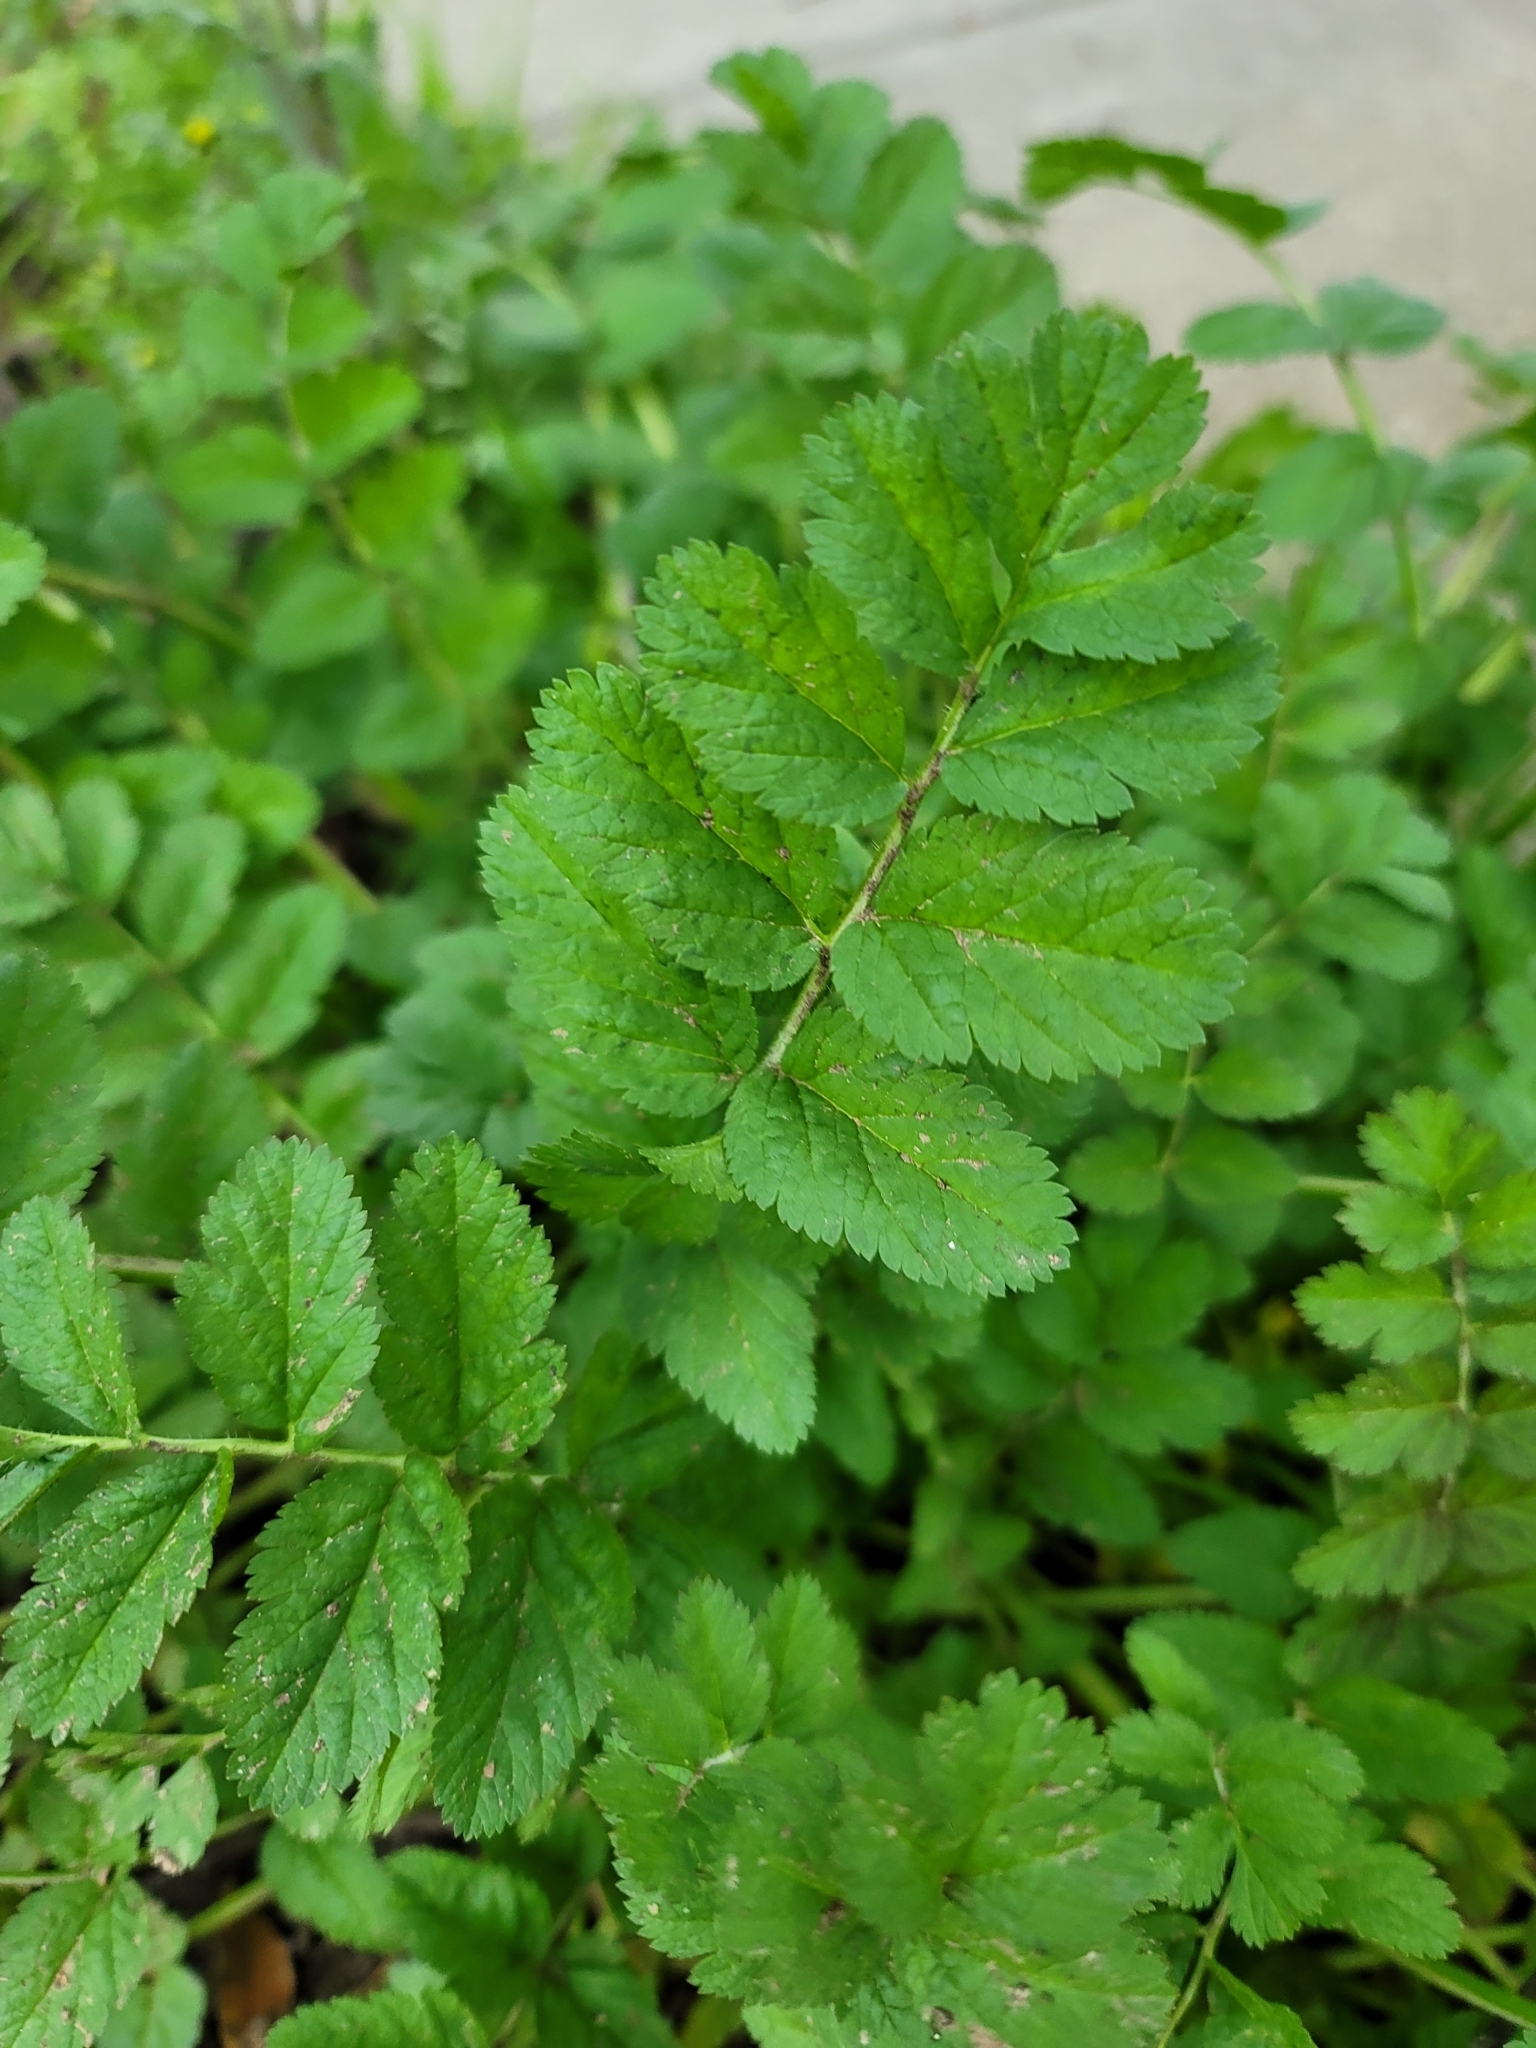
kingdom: Plantae
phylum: Tracheophyta
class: Magnoliopsida
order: Geraniales
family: Geraniaceae
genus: Erodium
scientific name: Erodium moschatum
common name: Musk stork's-bill
